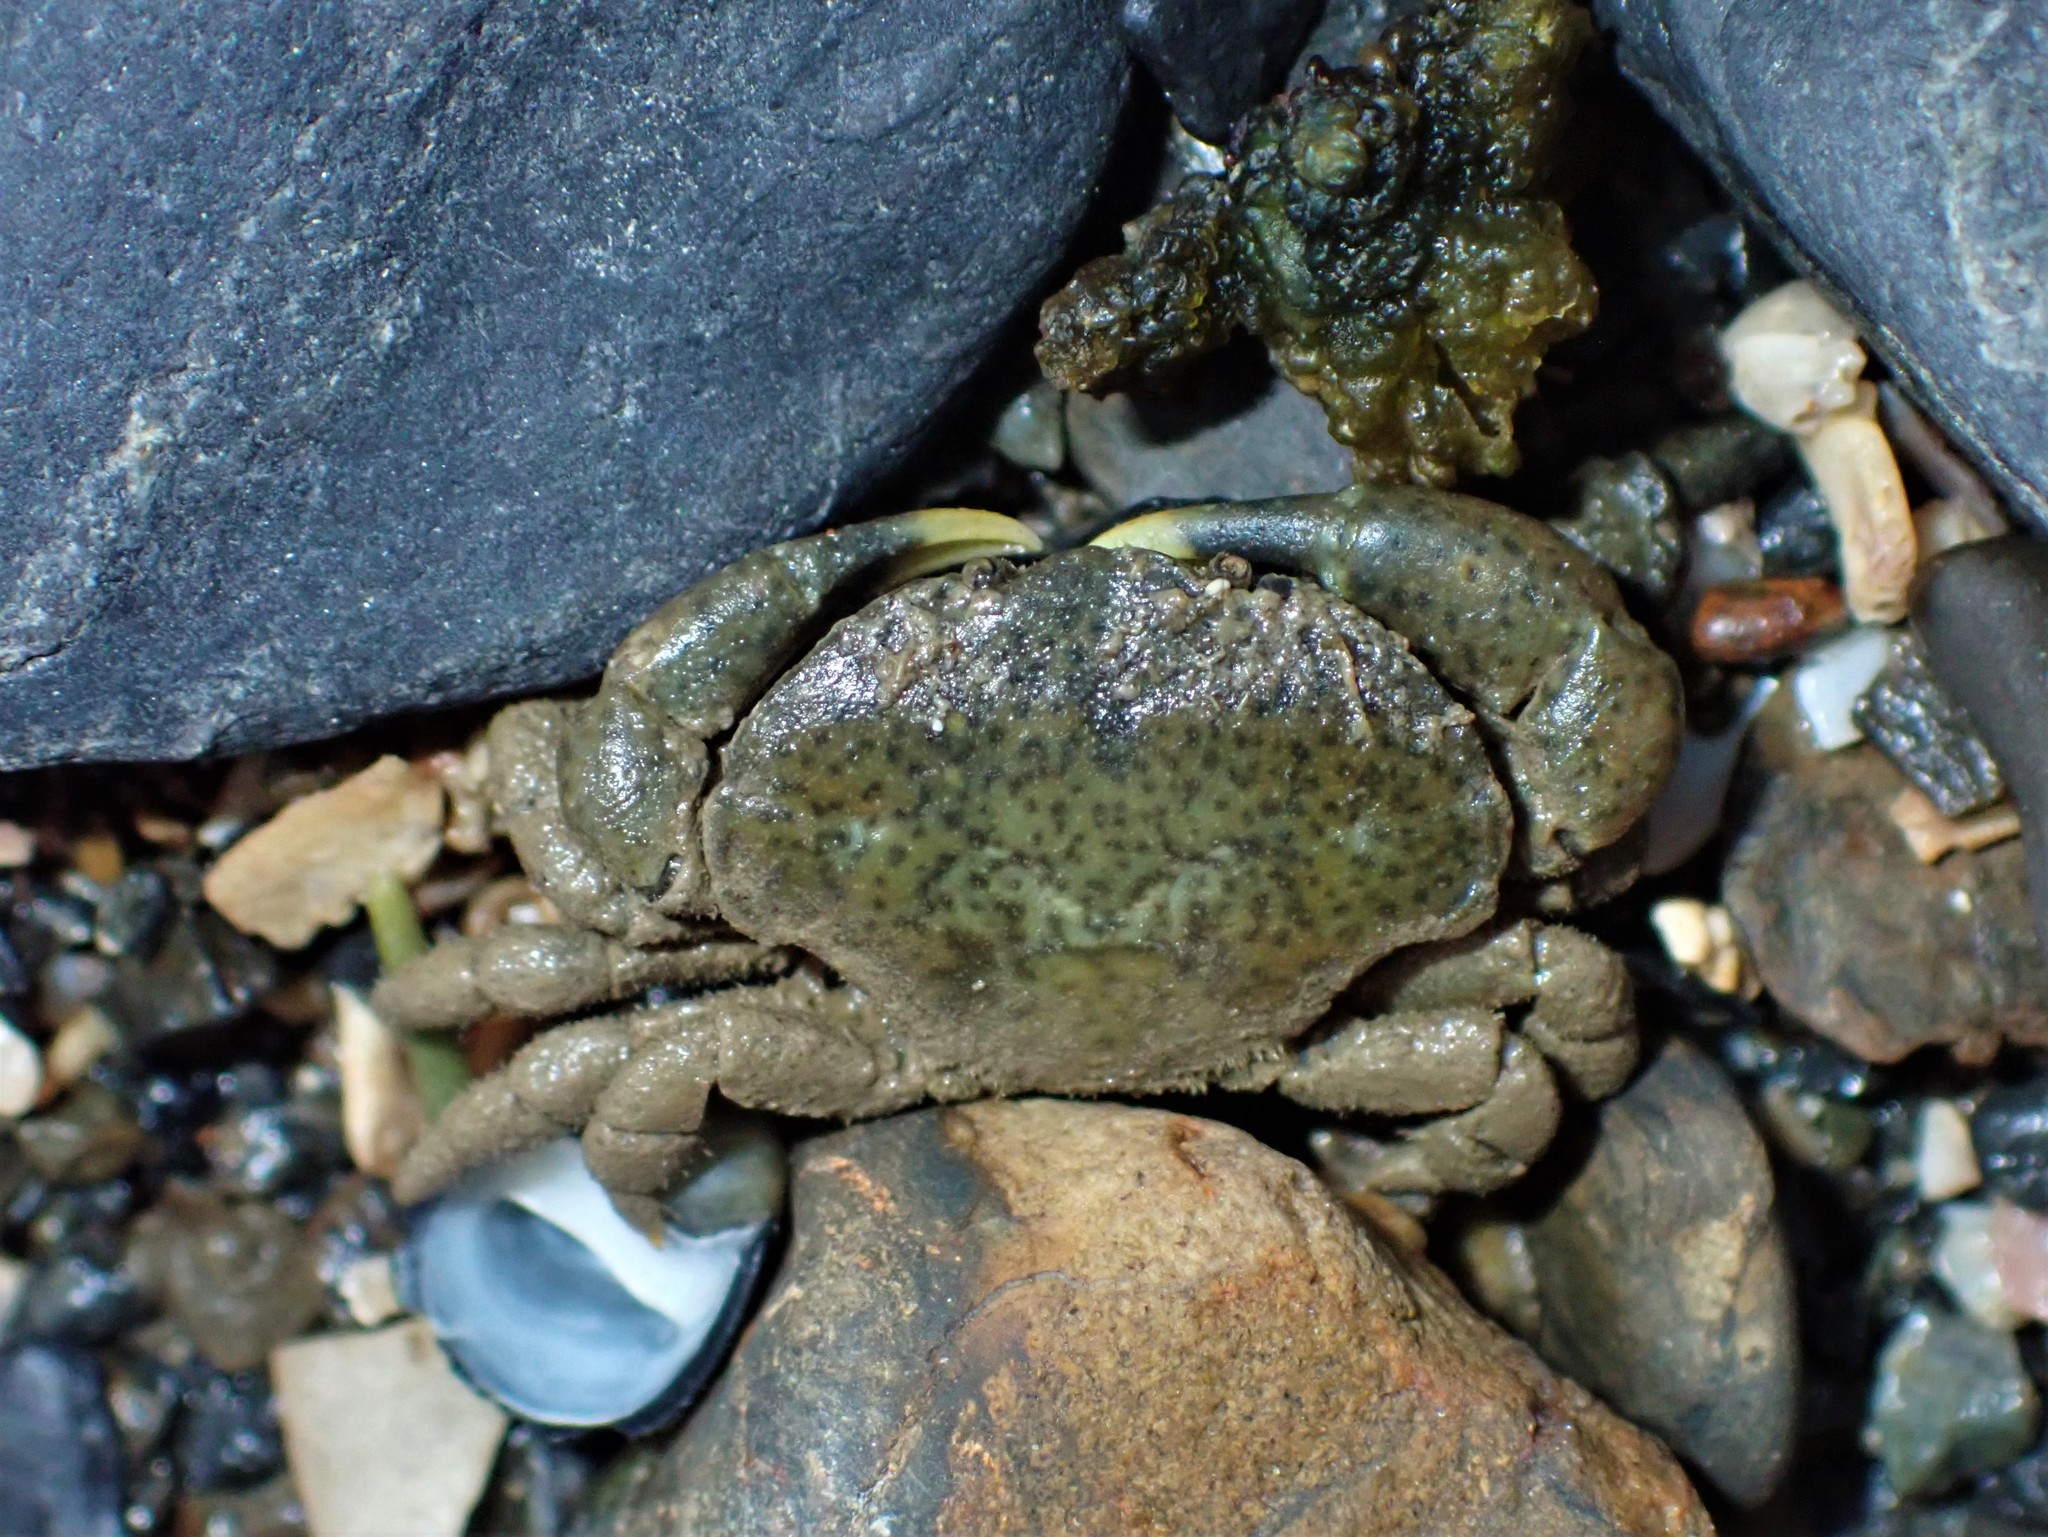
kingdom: Animalia
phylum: Arthropoda
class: Malacostraca
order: Decapoda
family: Heteroziidae
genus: Heterozius
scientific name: Heterozius rotundifrons
